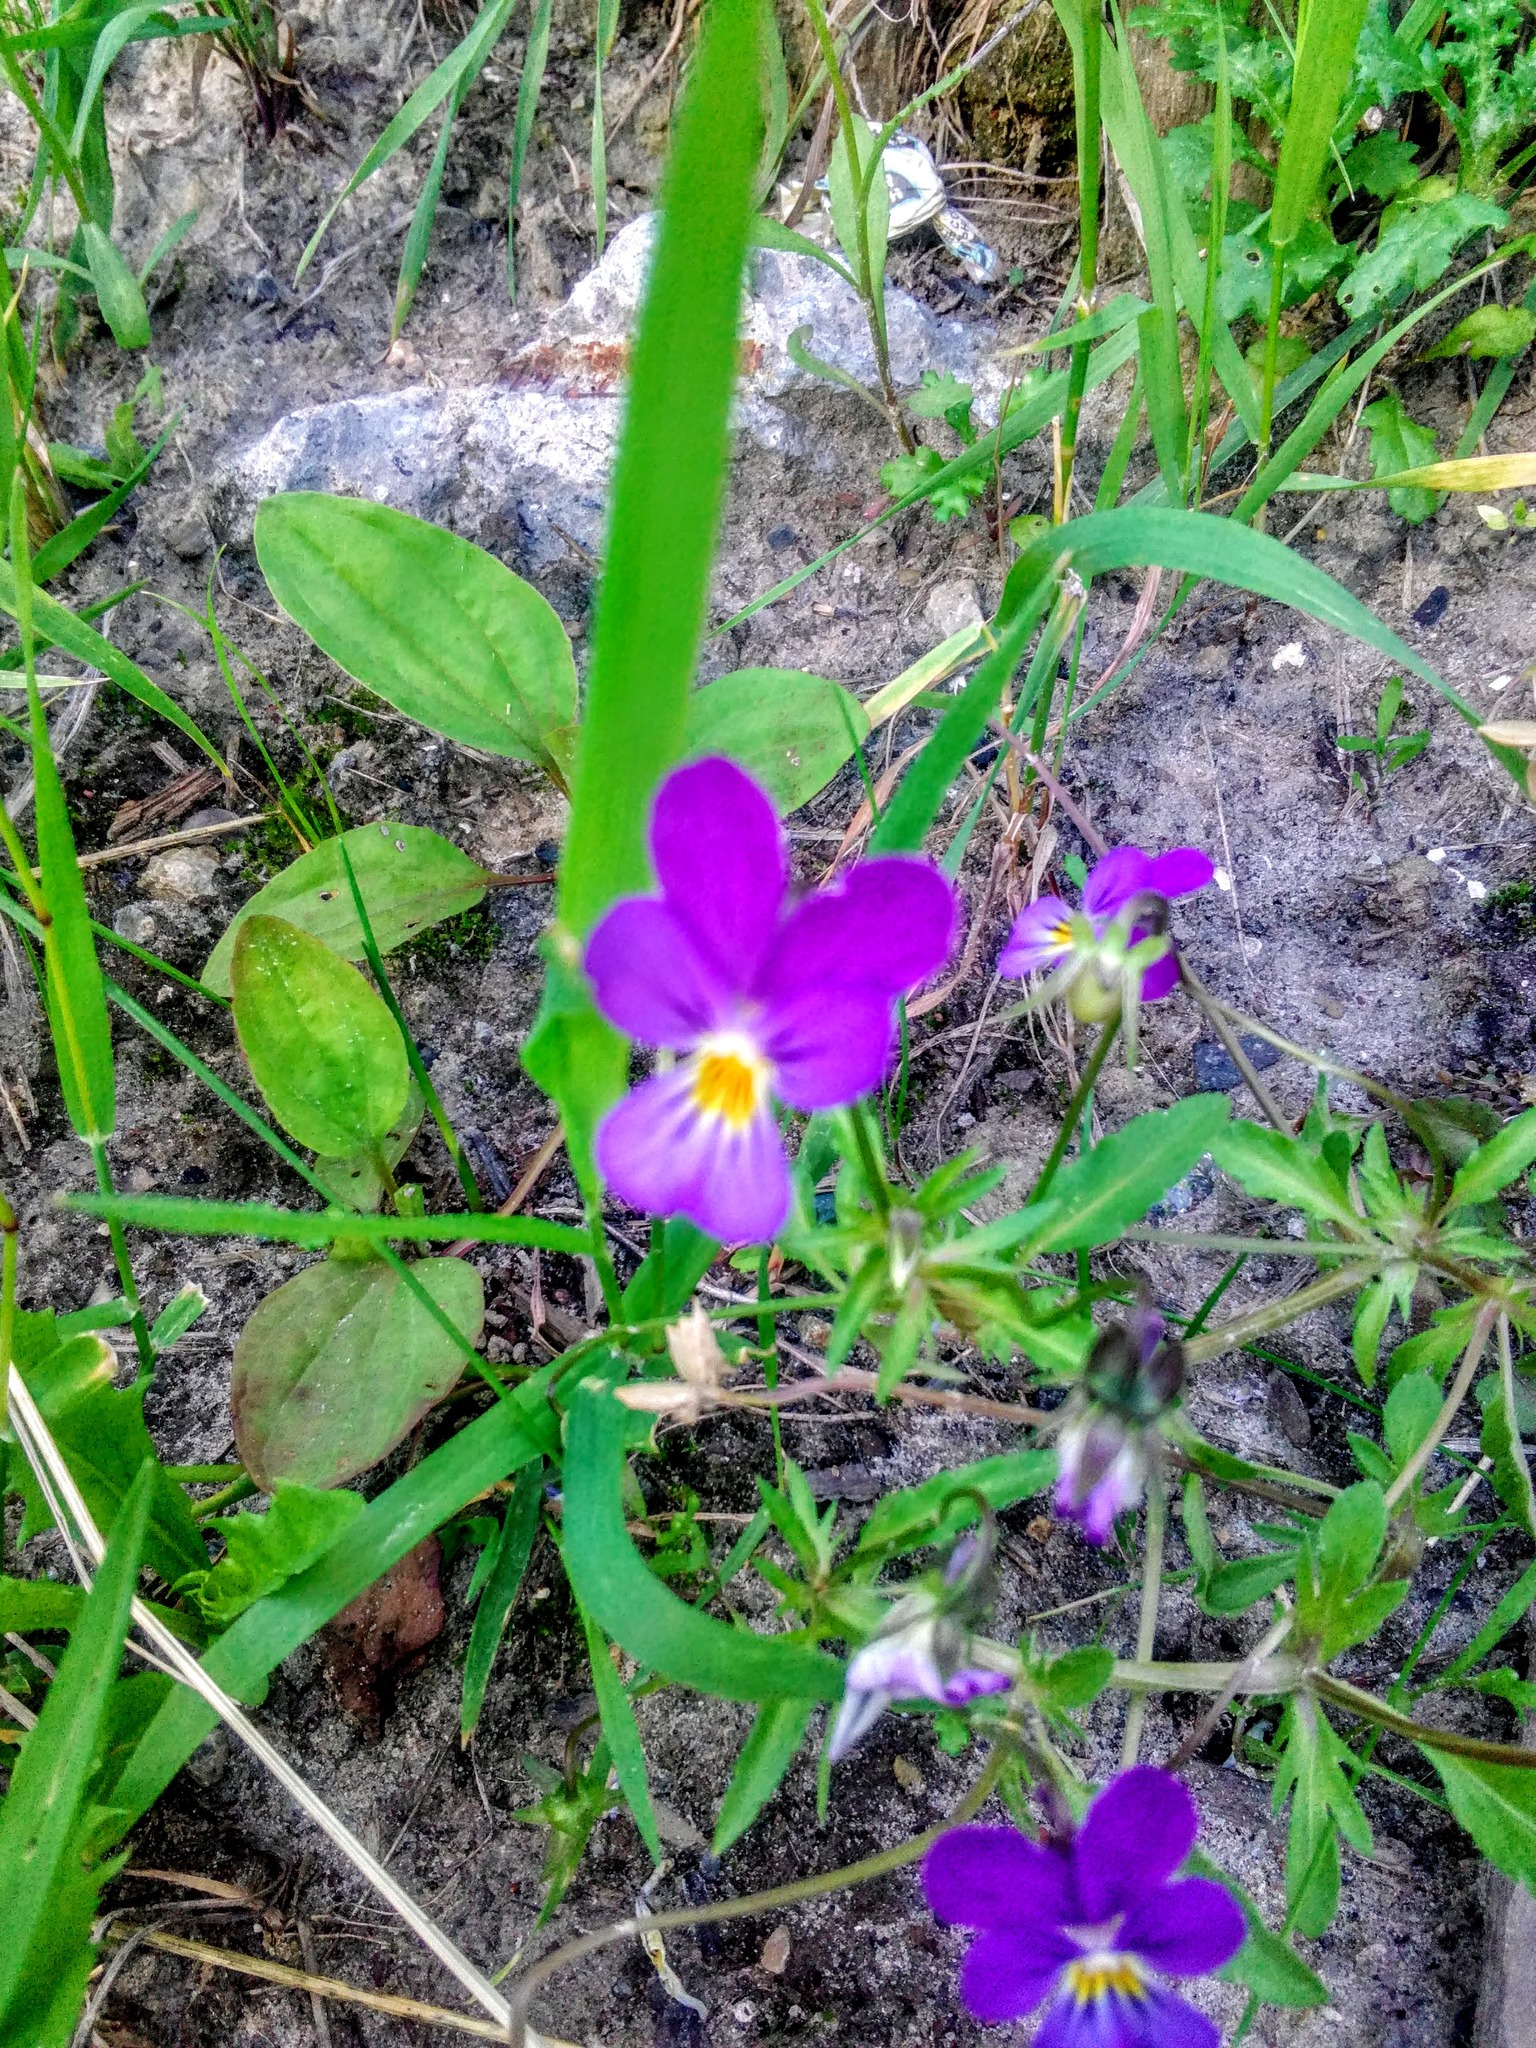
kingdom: Plantae
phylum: Tracheophyta
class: Magnoliopsida
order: Malpighiales
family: Violaceae
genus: Viola
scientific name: Viola tricolor
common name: Pansy
